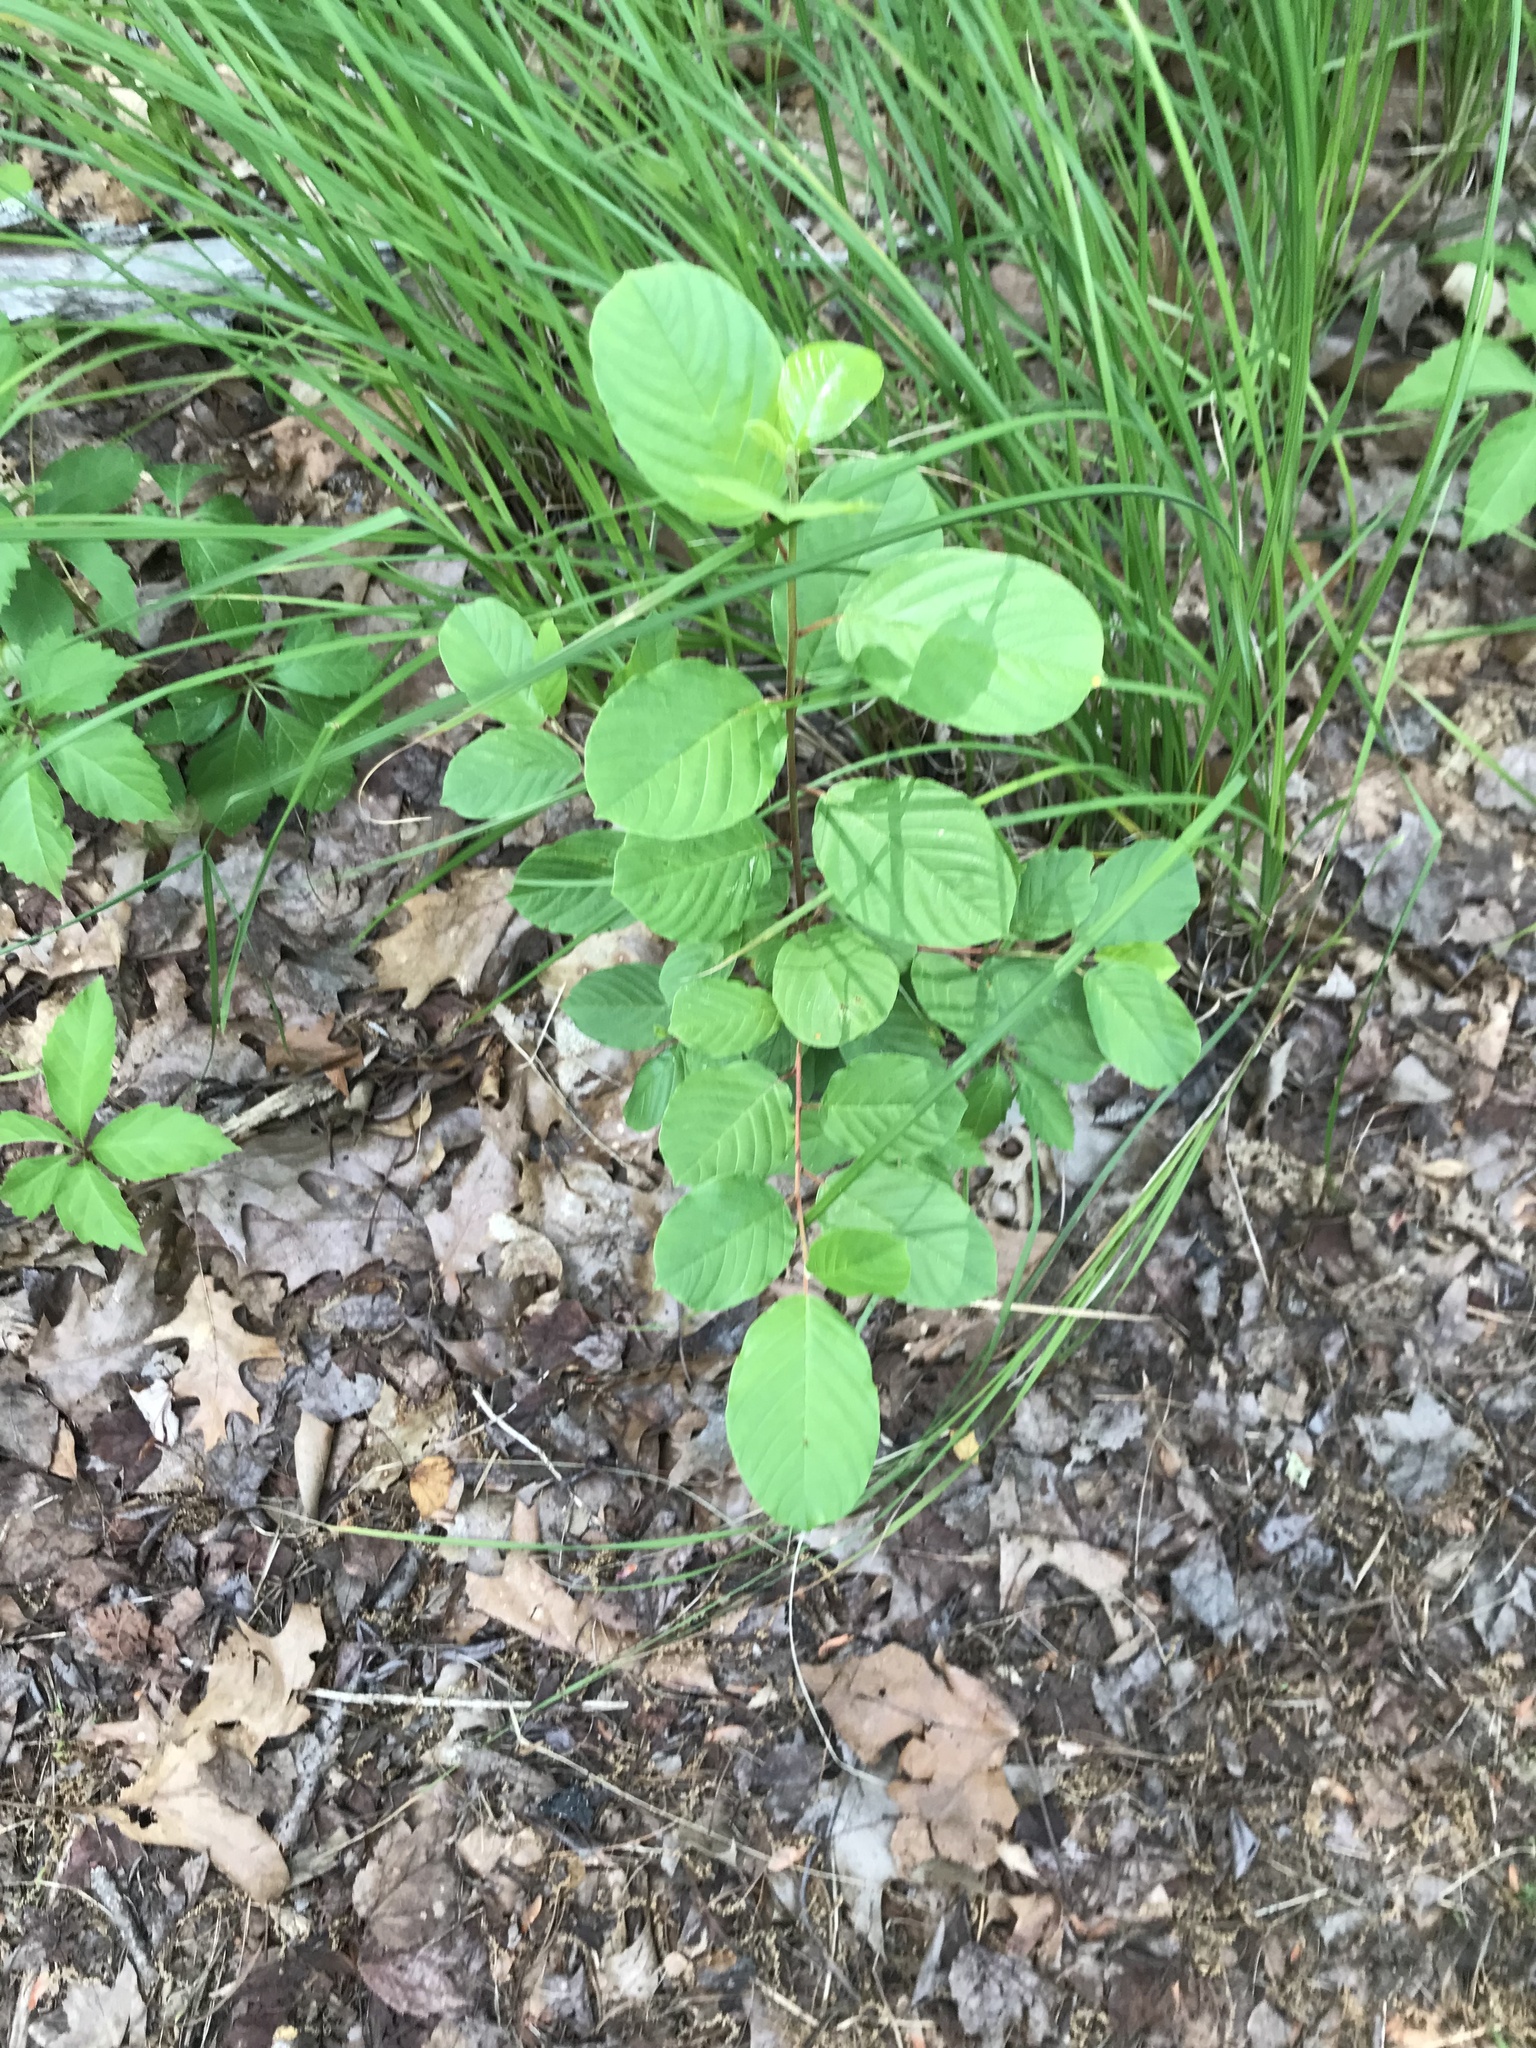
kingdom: Plantae
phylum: Tracheophyta
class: Magnoliopsida
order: Rosales
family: Rhamnaceae
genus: Frangula
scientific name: Frangula alnus
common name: Alder buckthorn
